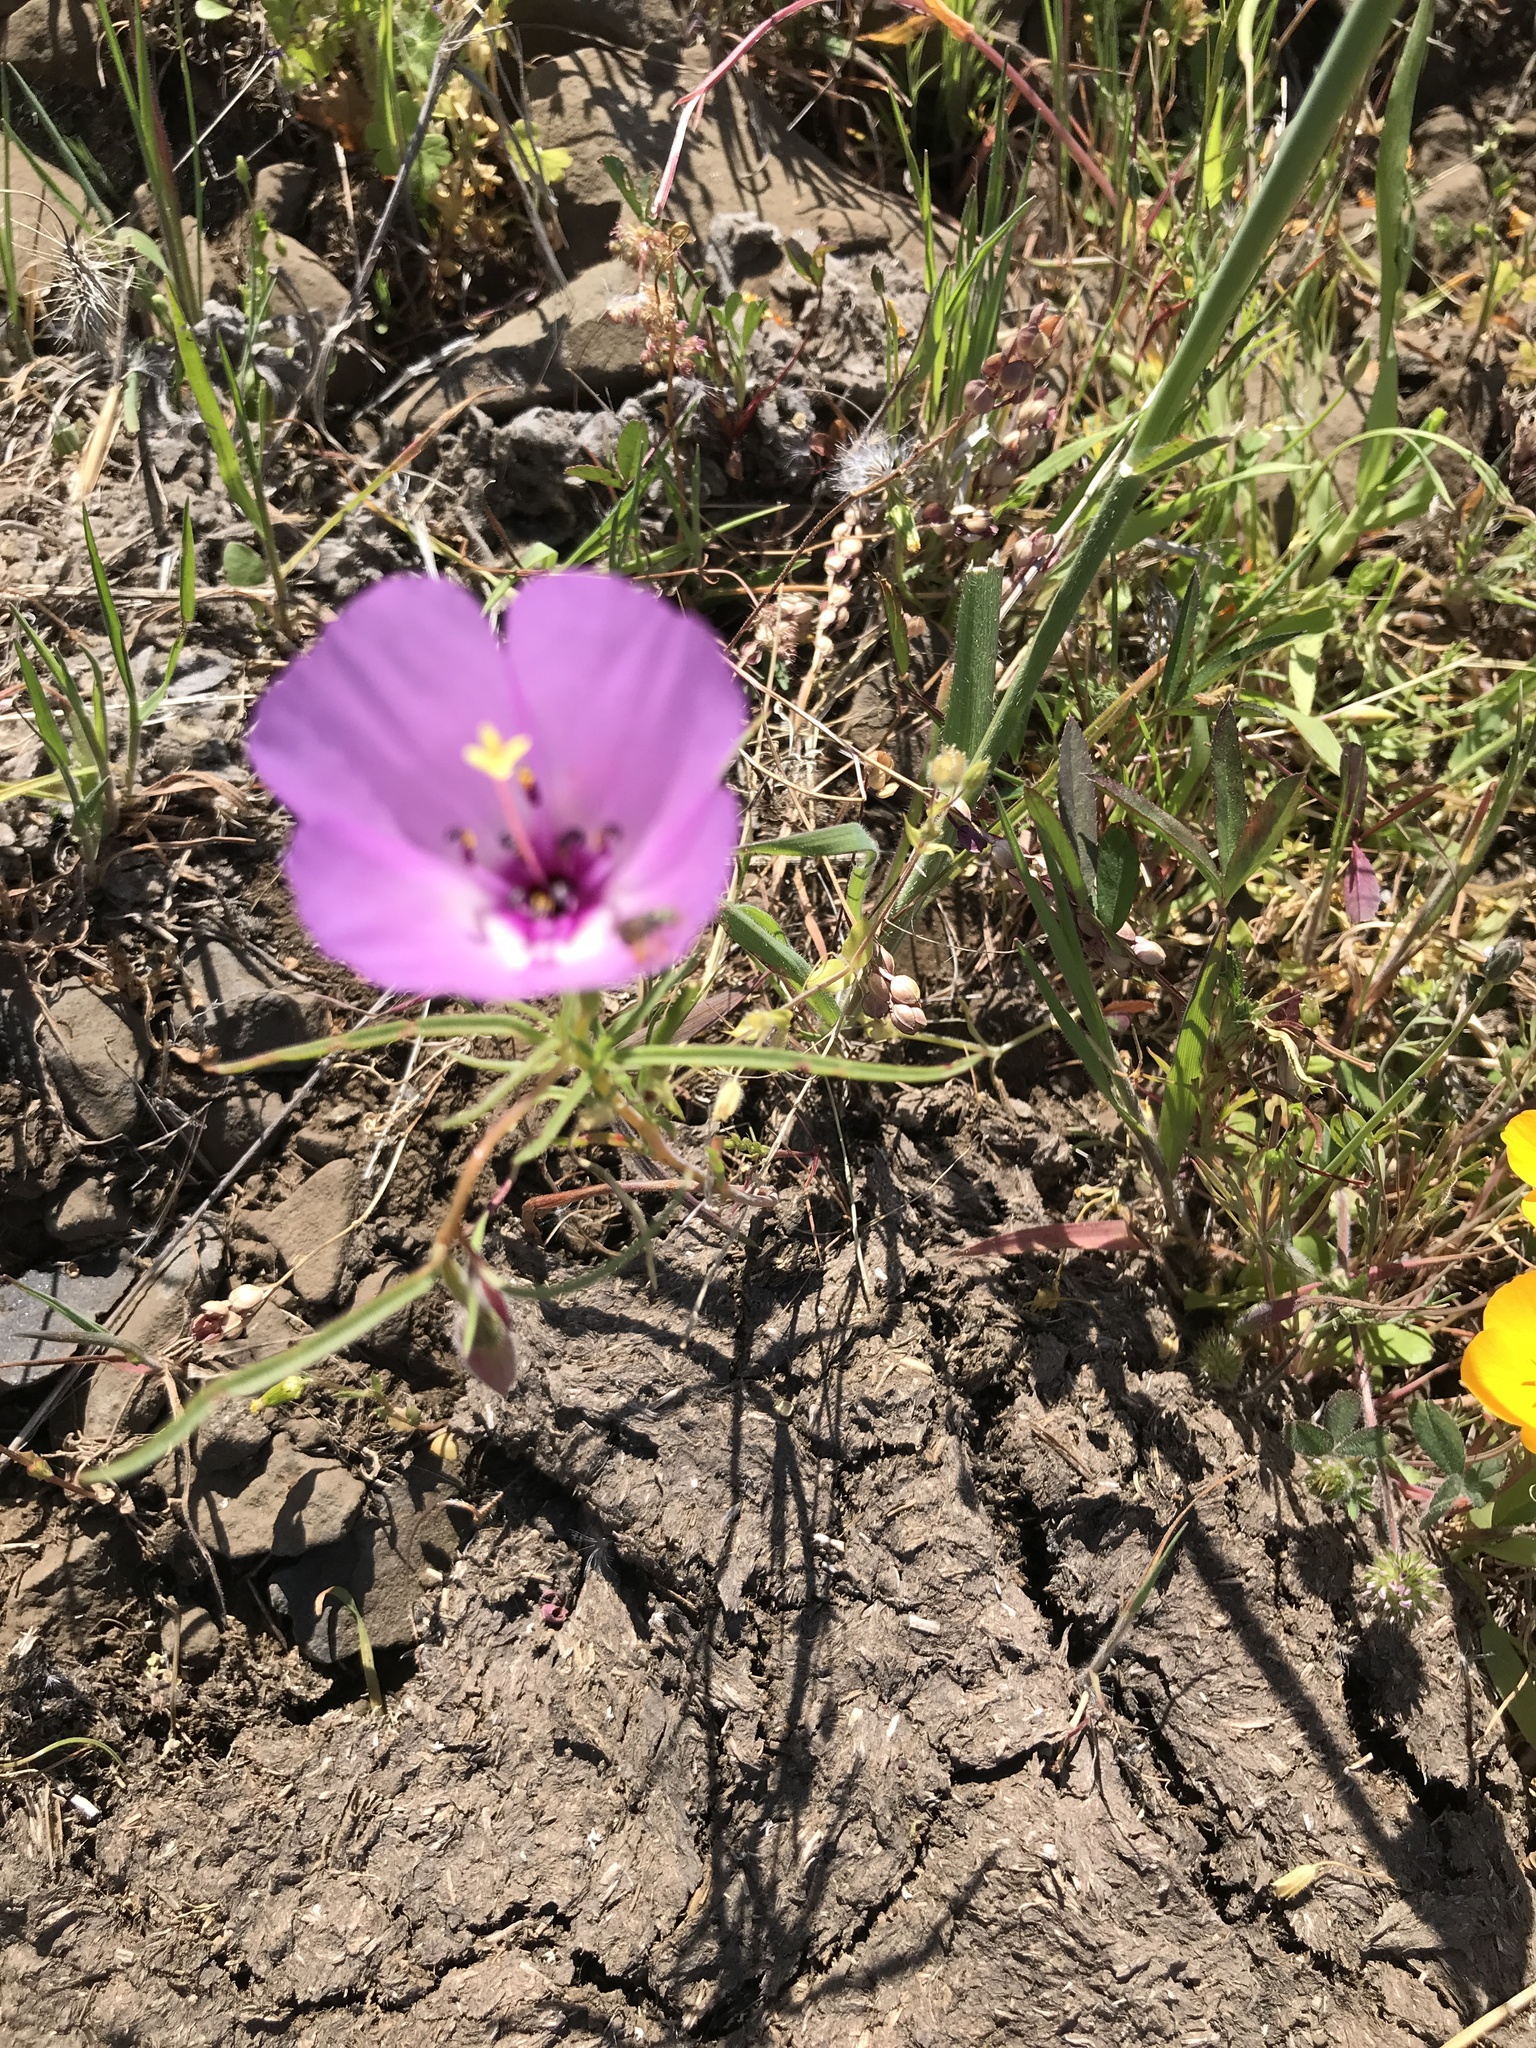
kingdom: Plantae
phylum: Tracheophyta
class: Magnoliopsida
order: Myrtales
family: Onagraceae
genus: Clarkia
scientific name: Clarkia arcuata
